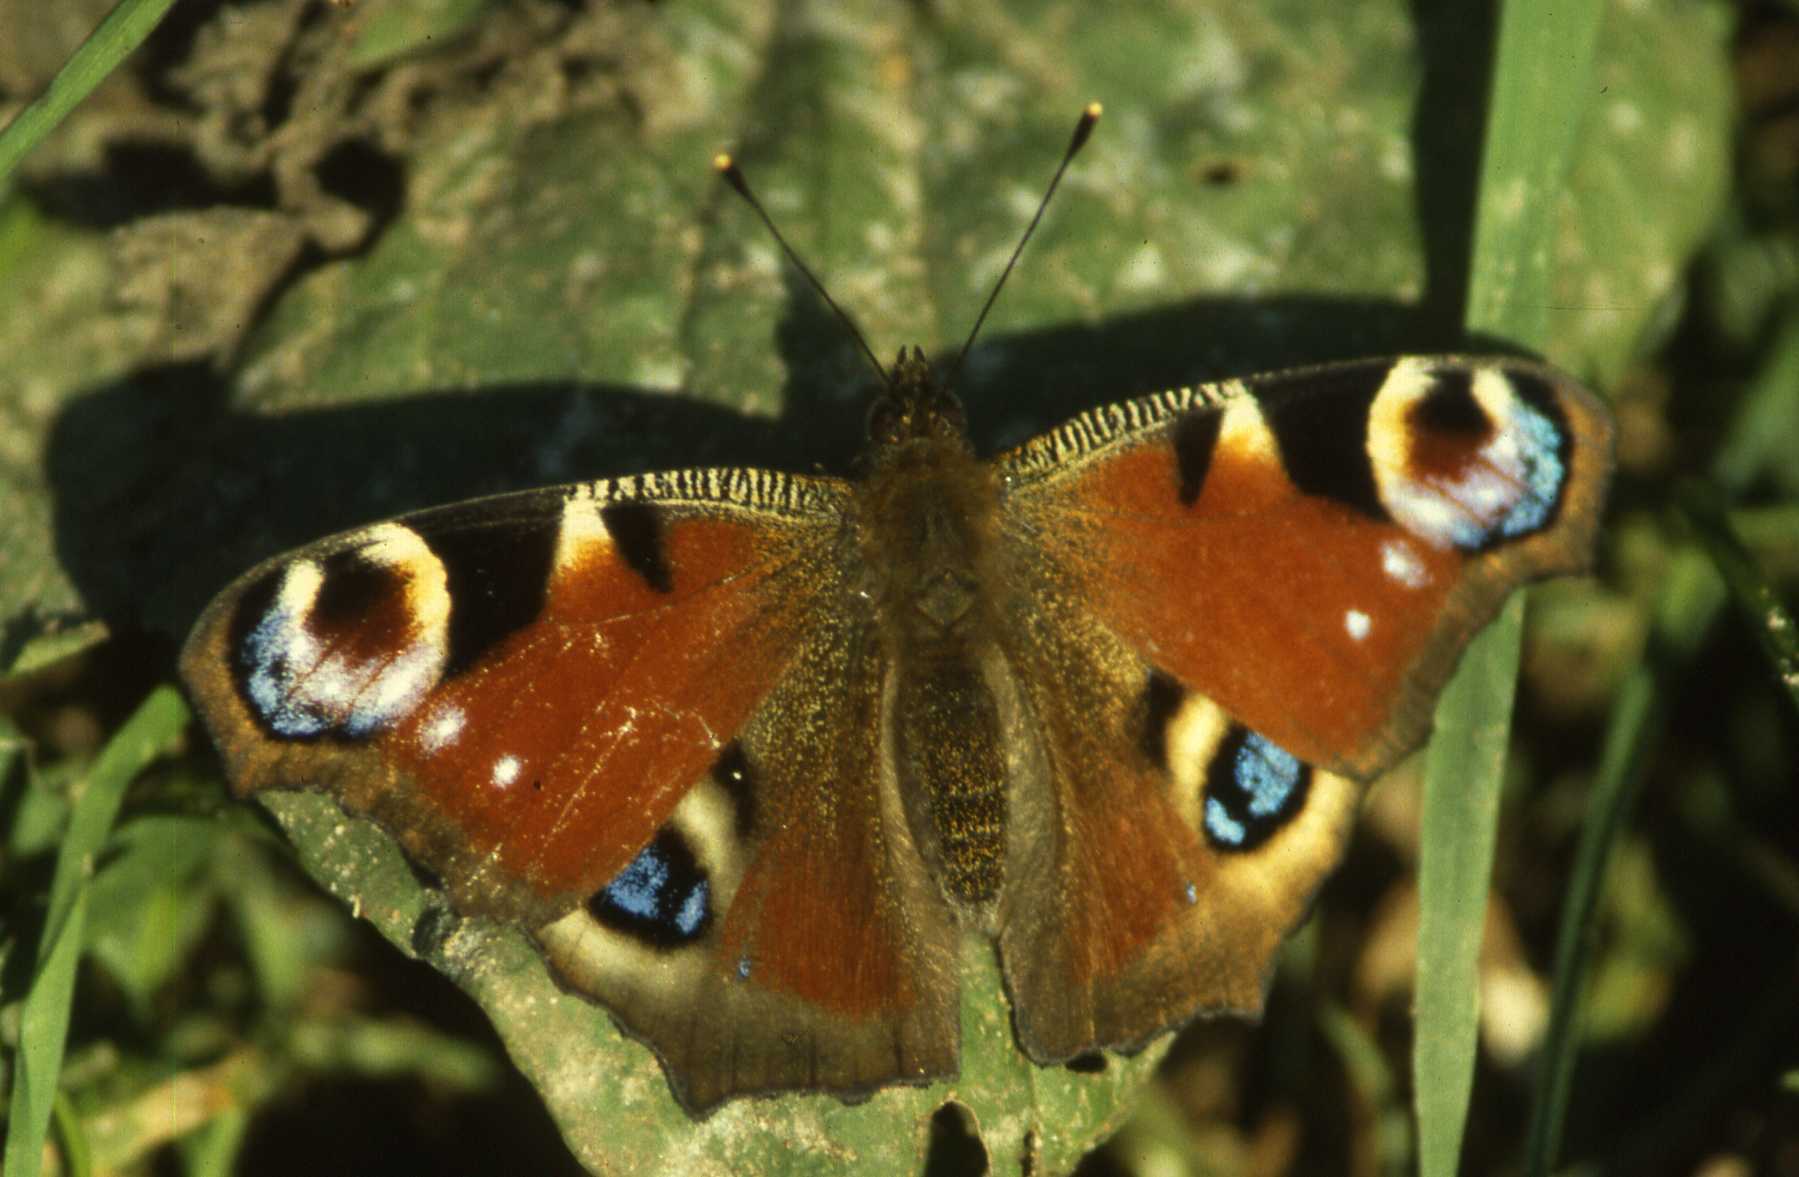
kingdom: Animalia
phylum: Arthropoda
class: Insecta
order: Lepidoptera
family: Nymphalidae
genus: Aglais
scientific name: Aglais io
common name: Peacock
